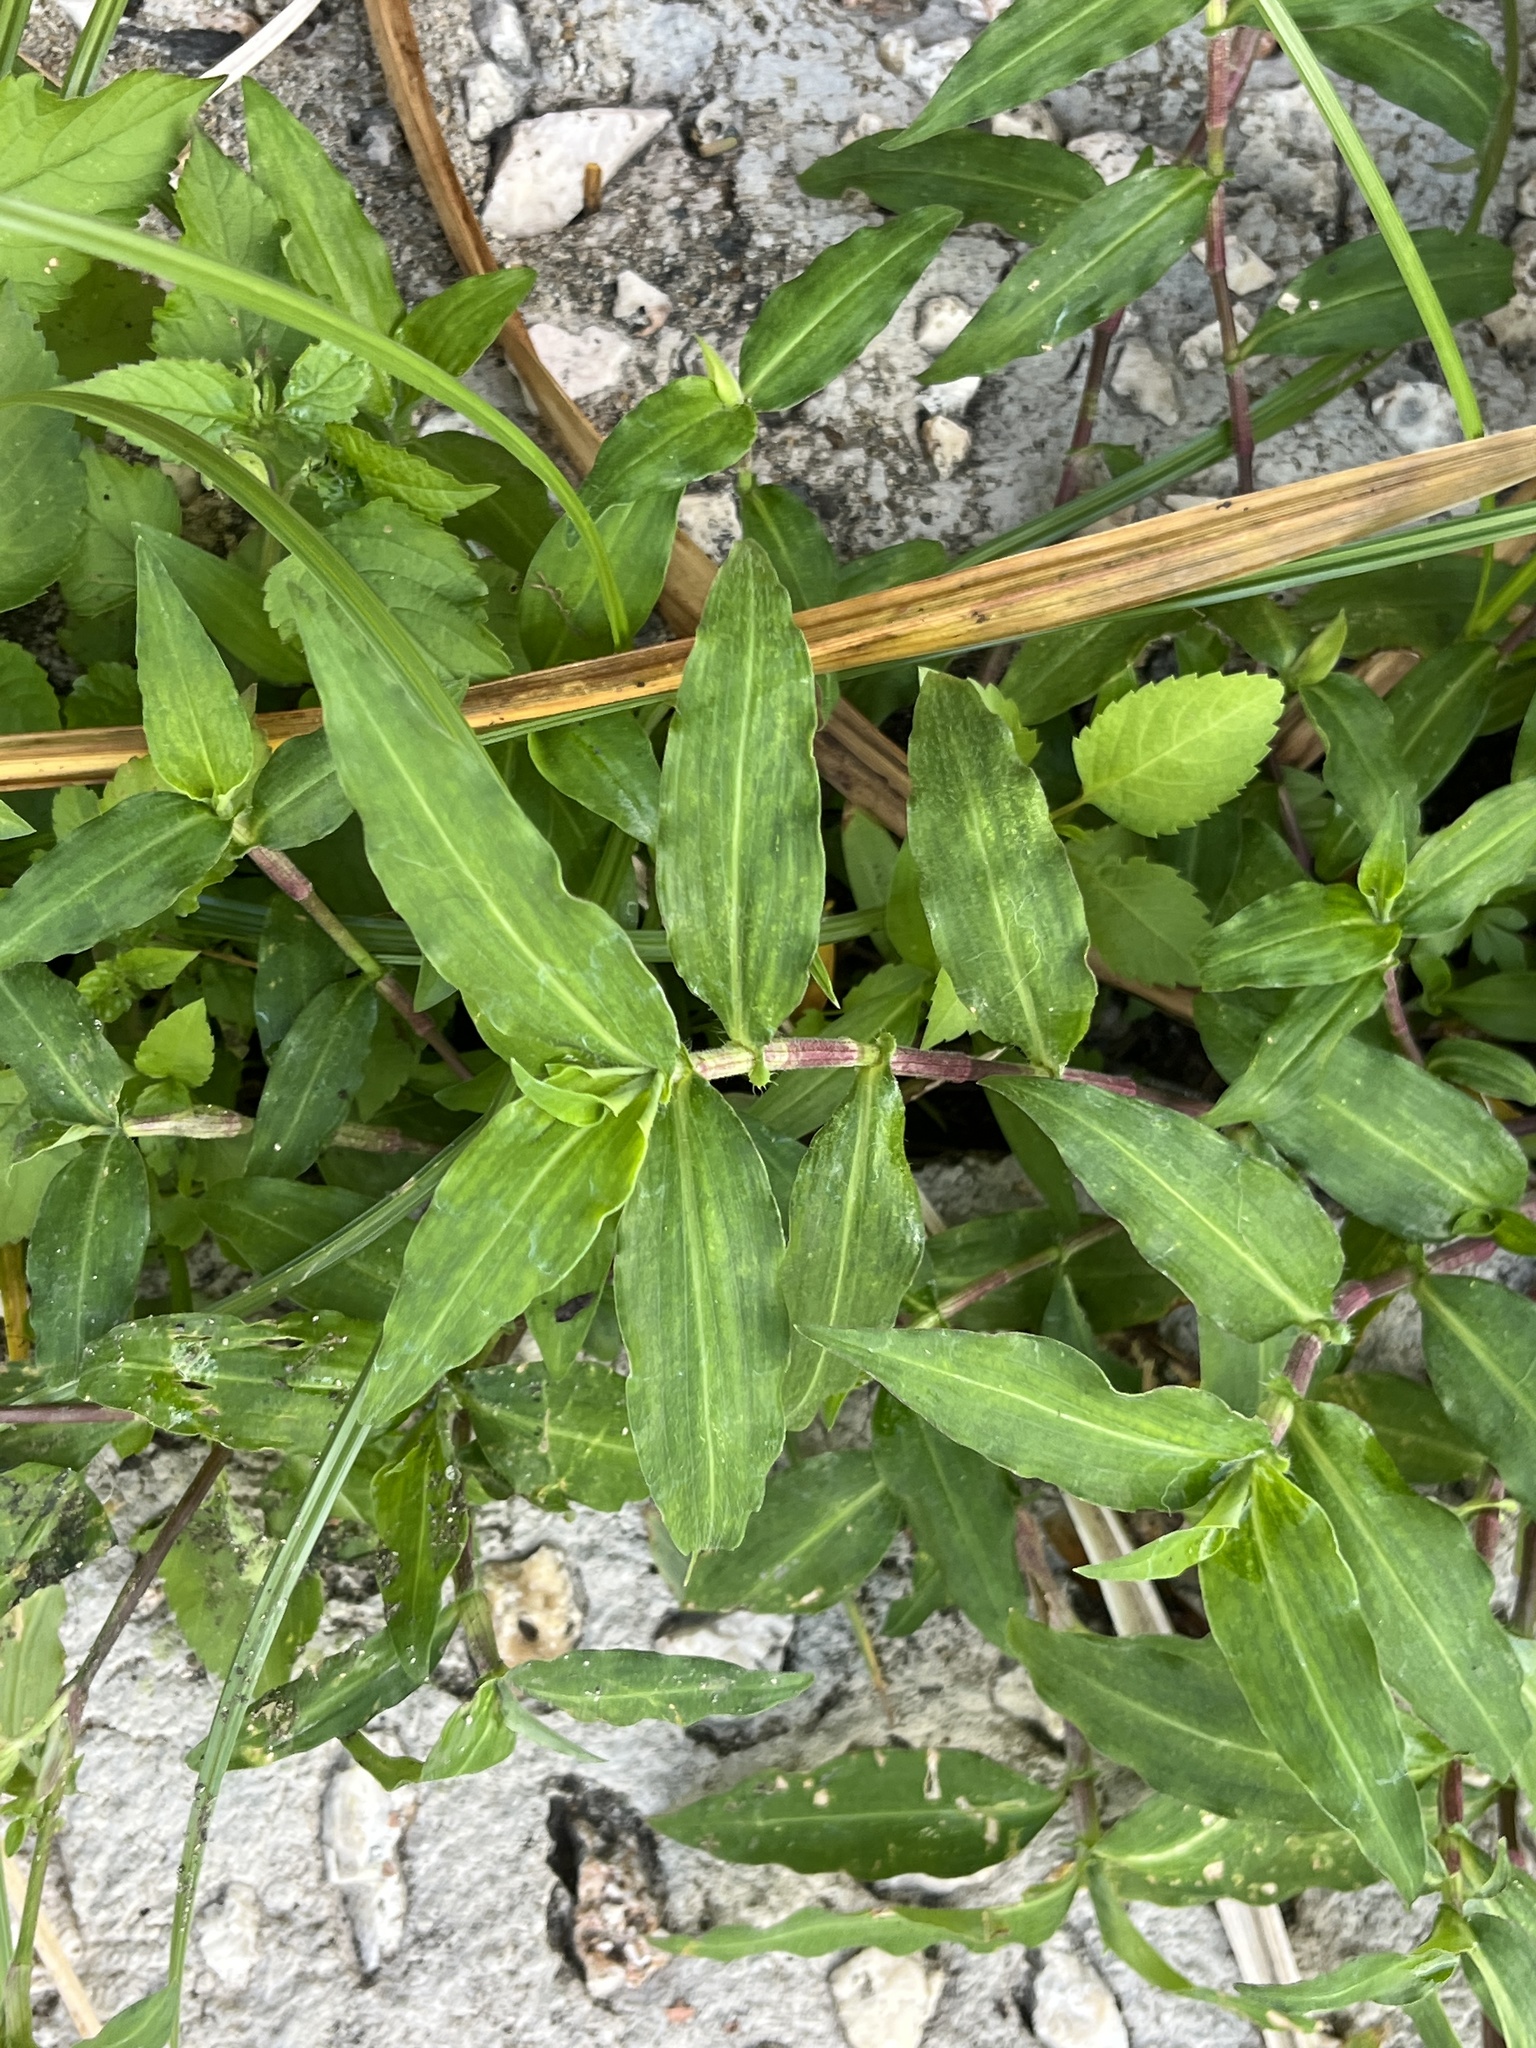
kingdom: Plantae
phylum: Tracheophyta
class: Liliopsida
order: Commelinales
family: Commelinaceae
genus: Commelina
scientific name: Commelina erecta
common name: Blousel blommetjie
